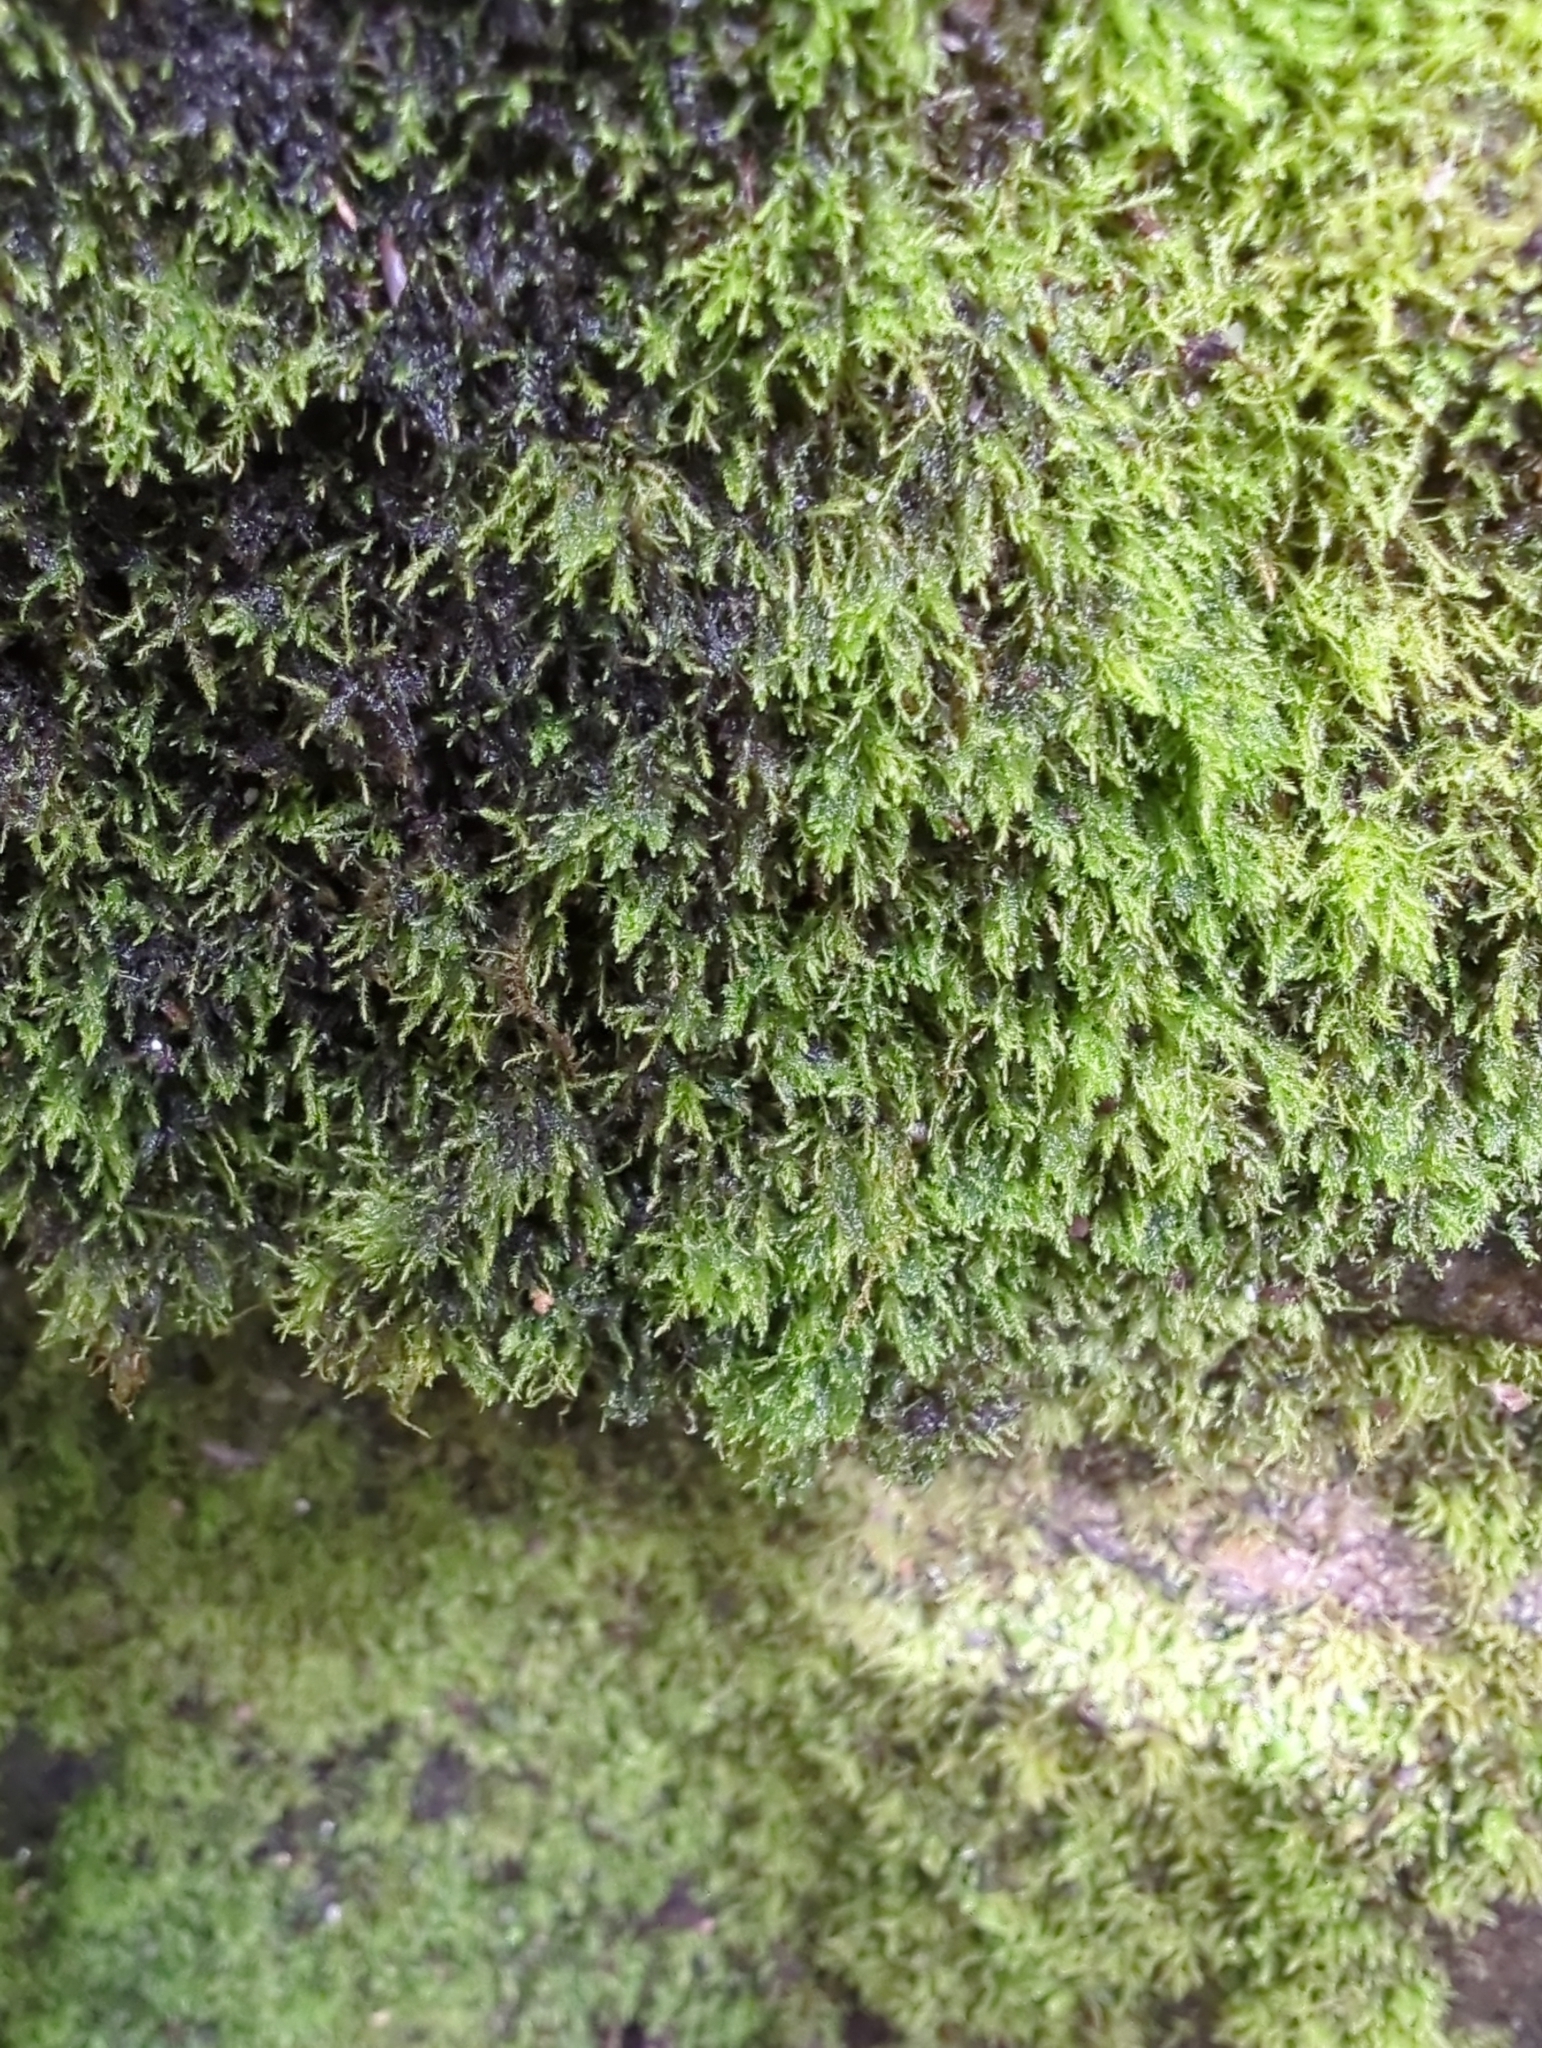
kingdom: Plantae
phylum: Bryophyta
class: Bryopsida
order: Hypnales
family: Amblystegiaceae
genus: Amblystegium
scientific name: Amblystegium serpens
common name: Jurkatzka's feather moss
